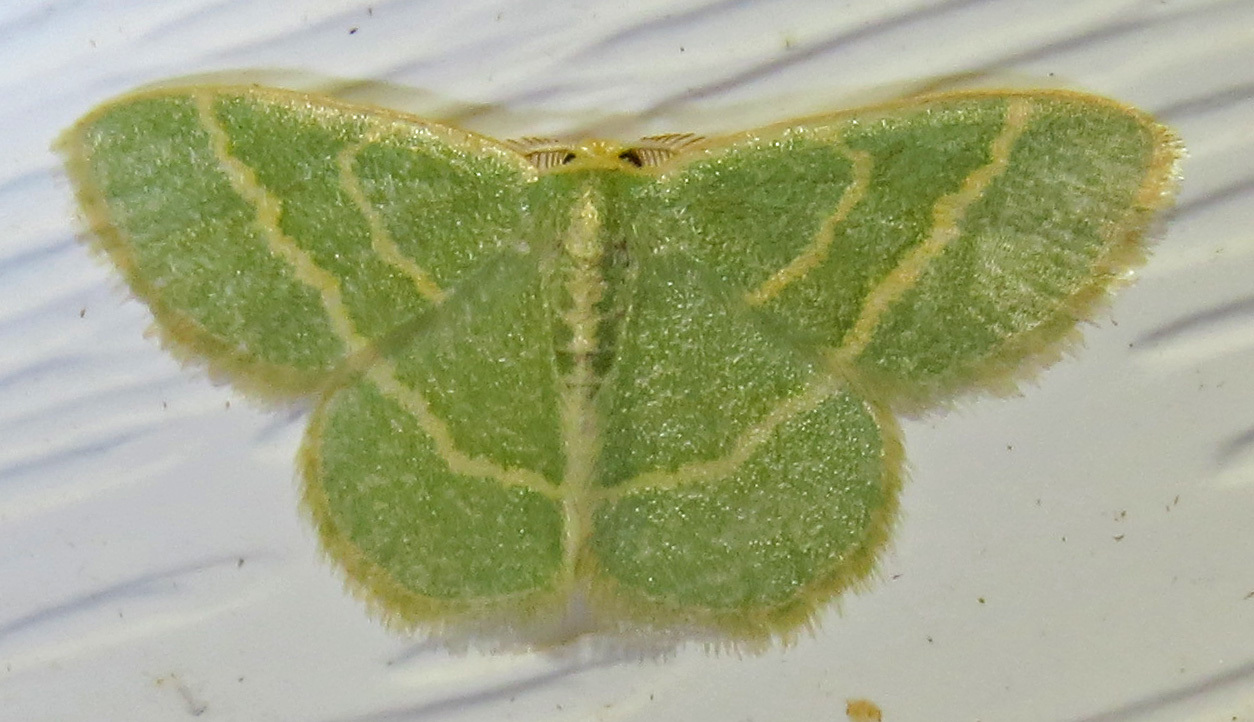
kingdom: Animalia
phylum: Arthropoda
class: Insecta
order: Lepidoptera
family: Geometridae
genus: Chlorochlamys
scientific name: Chlorochlamys chloroleucaria
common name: Blackberry looper
